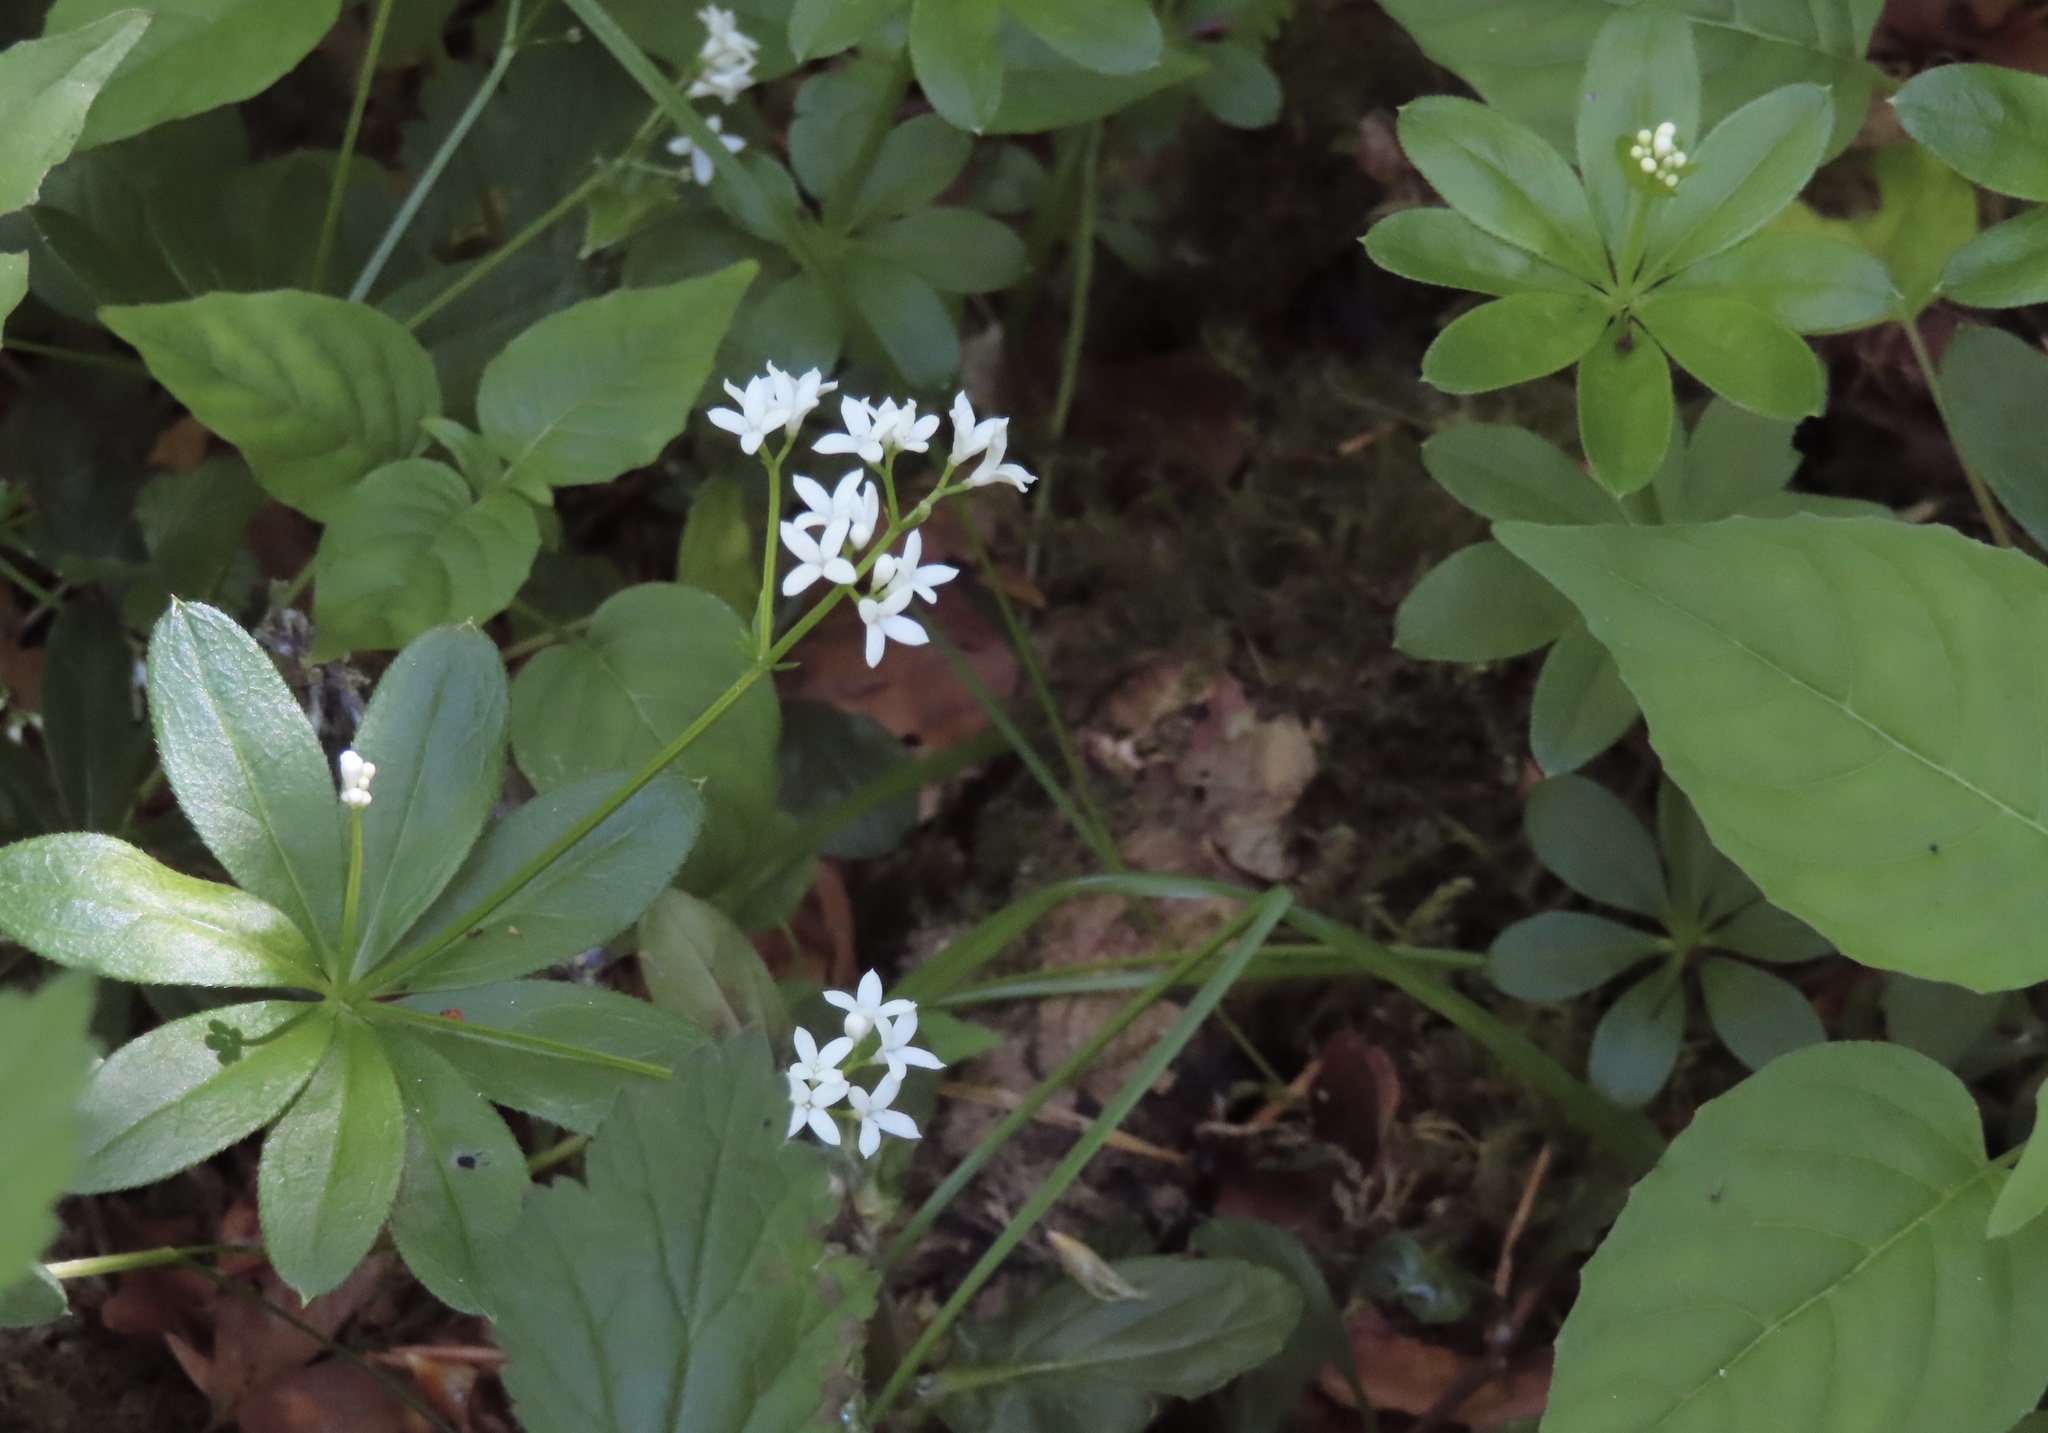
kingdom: Plantae
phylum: Tracheophyta
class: Magnoliopsida
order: Gentianales
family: Rubiaceae
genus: Galium
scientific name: Galium odoratum
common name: Sweet woodruff
